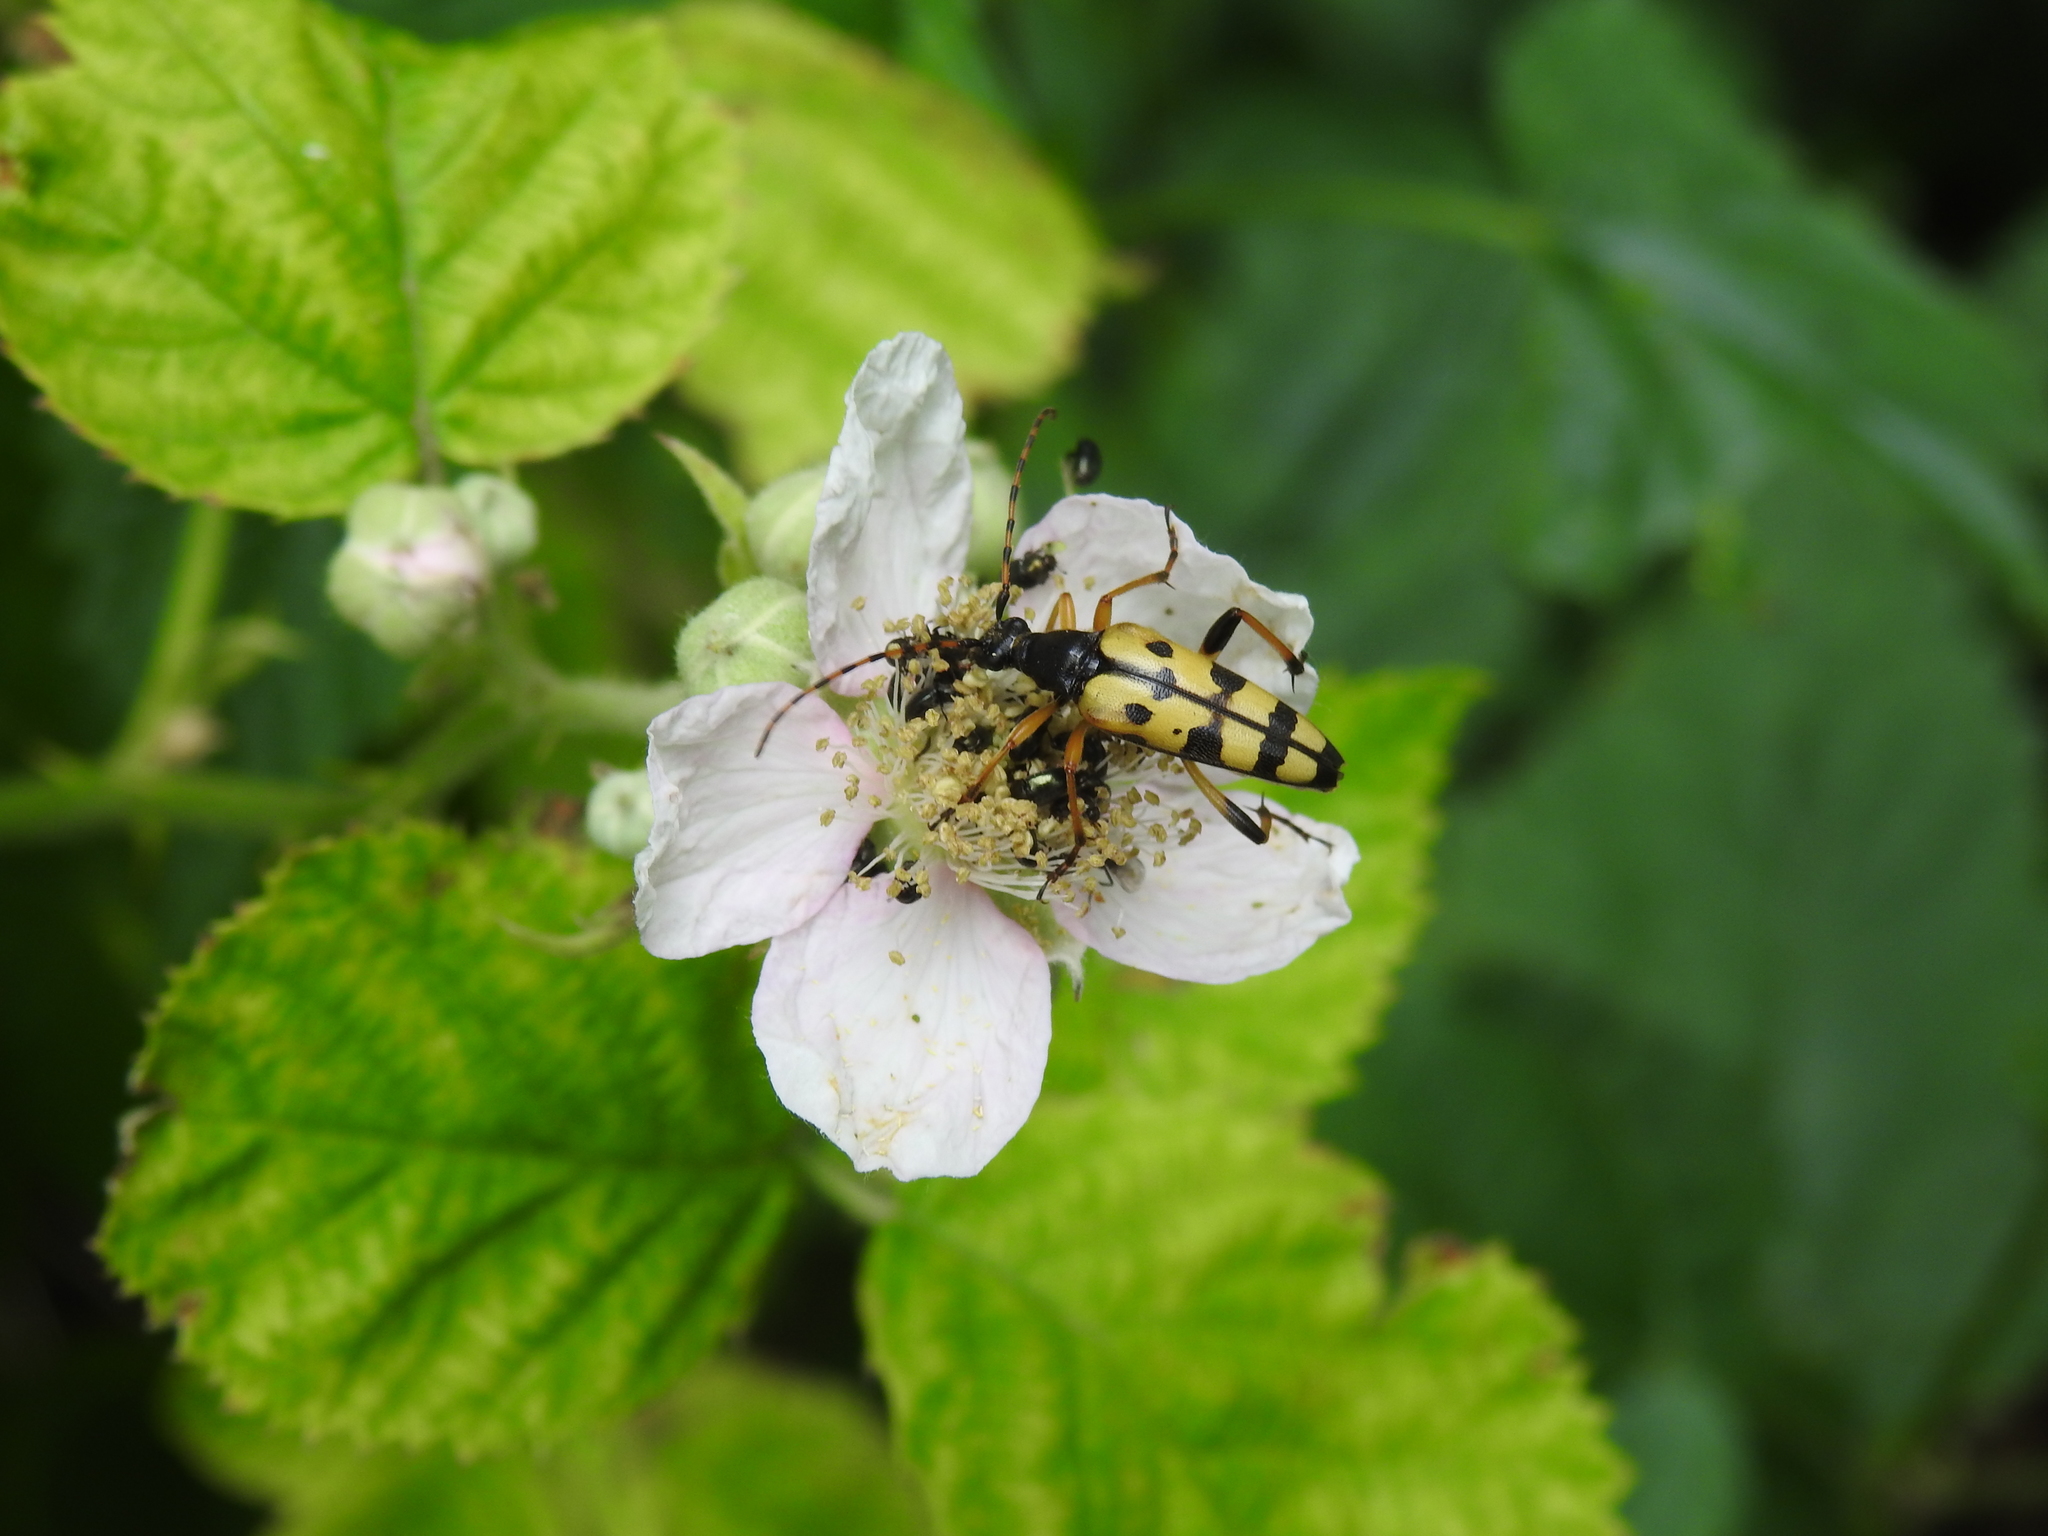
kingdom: Animalia
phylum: Arthropoda
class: Insecta
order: Coleoptera
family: Cerambycidae
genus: Rutpela
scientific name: Rutpela maculata
